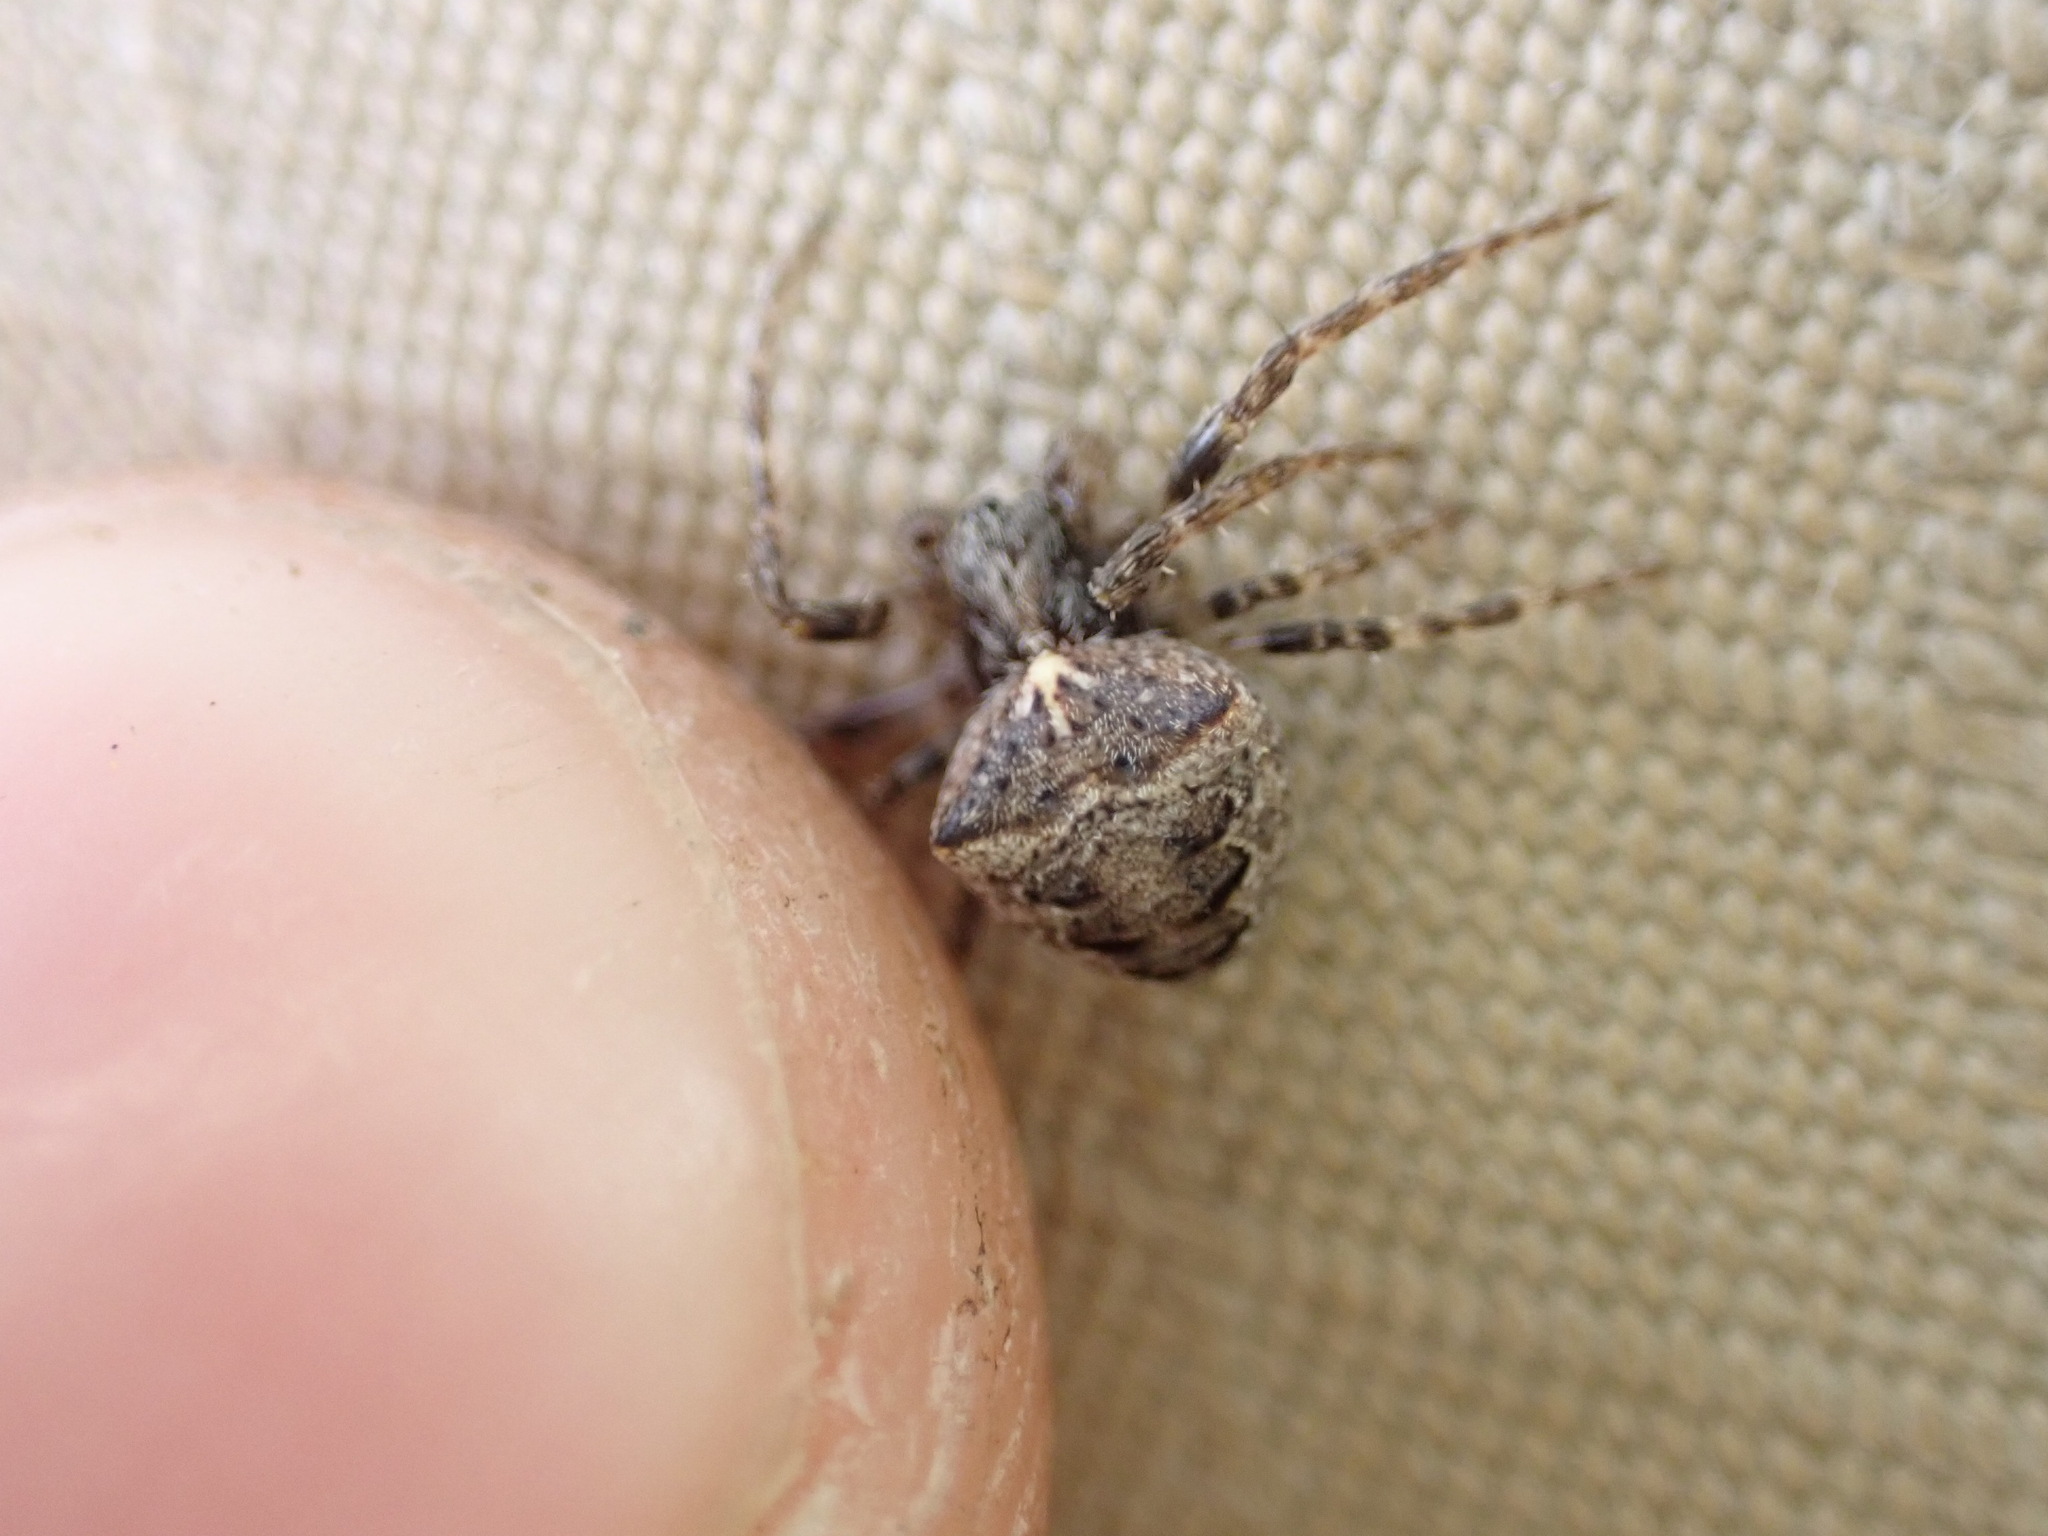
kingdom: Animalia
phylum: Arthropoda
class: Arachnida
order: Araneae
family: Araneidae
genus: Gibbaranea
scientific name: Gibbaranea bituberculata
